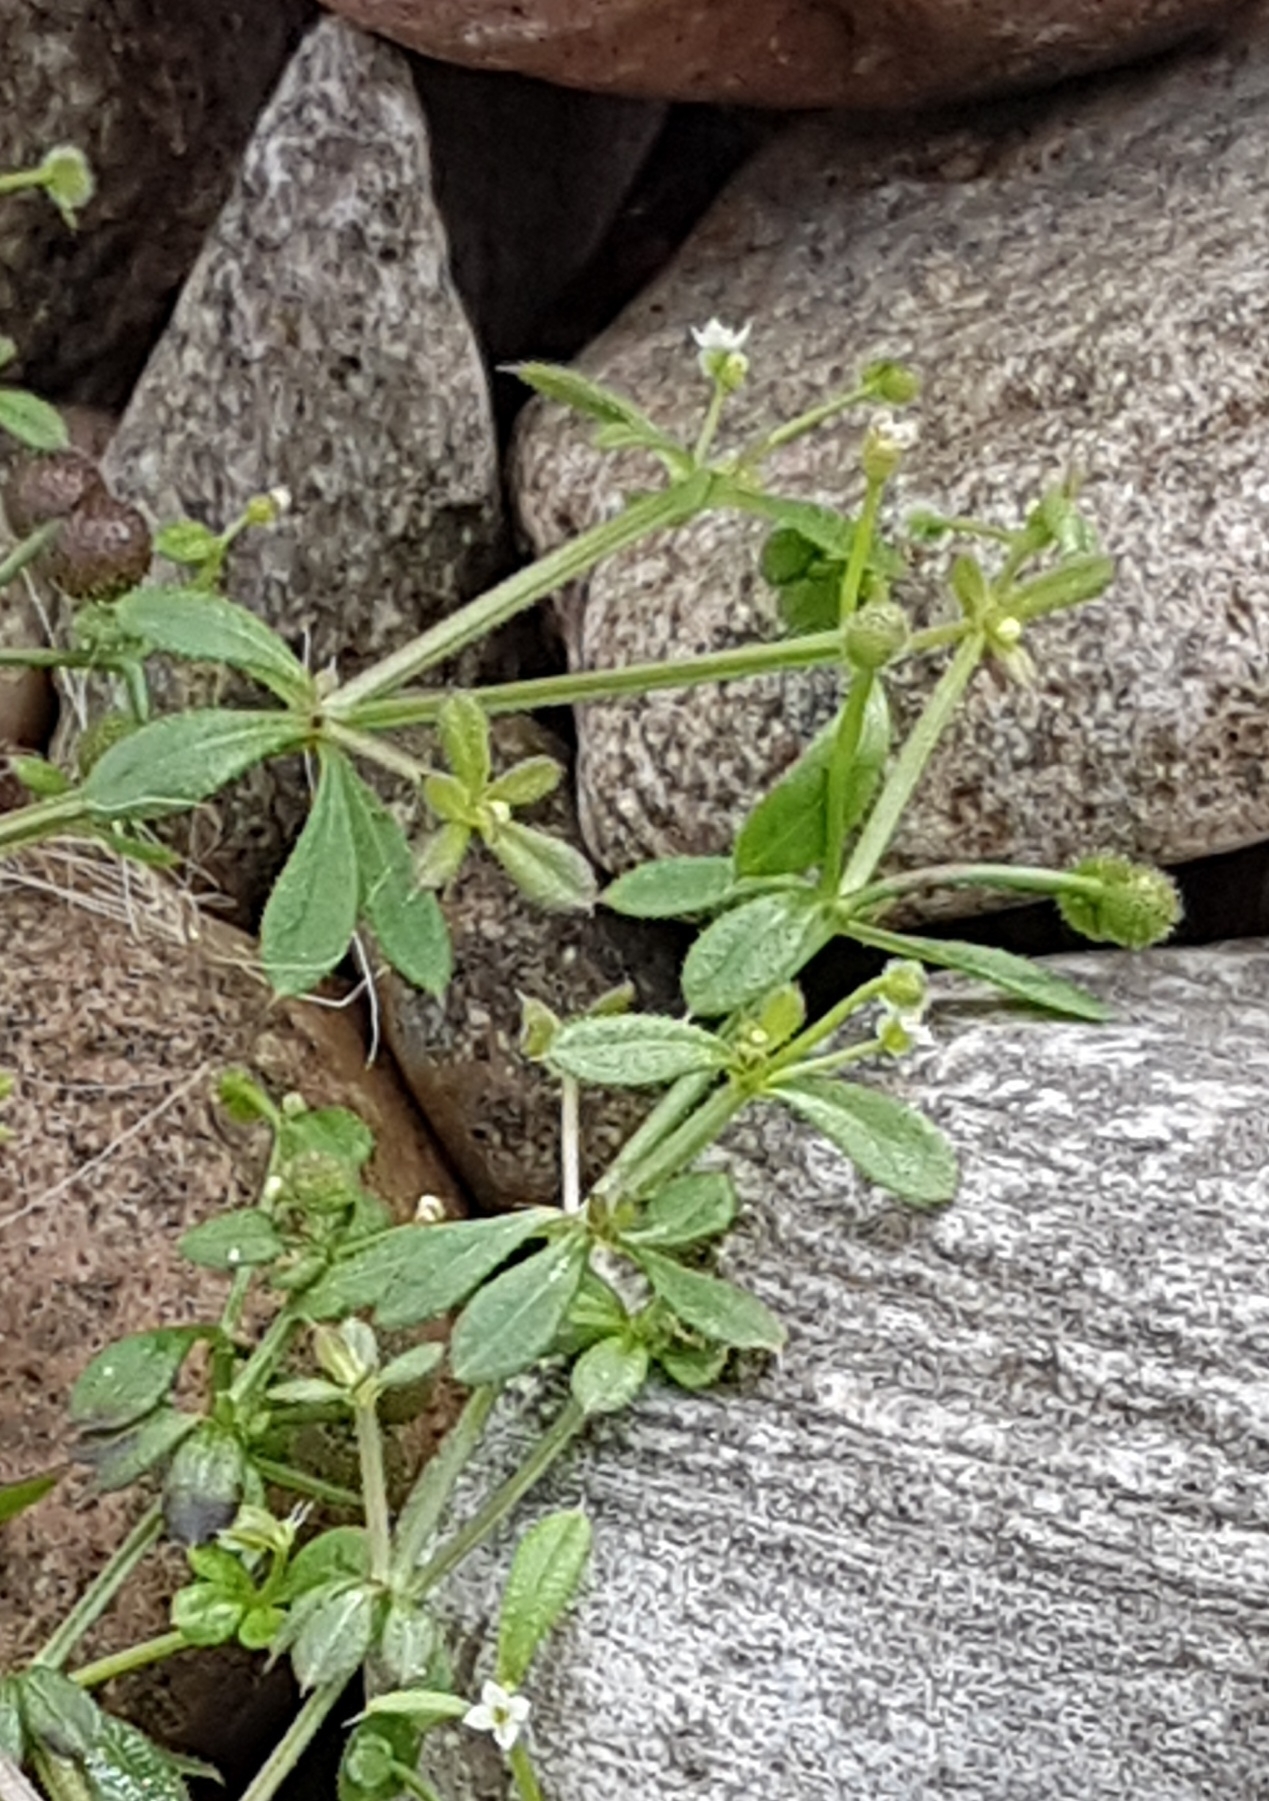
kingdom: Plantae
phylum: Tracheophyta
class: Magnoliopsida
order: Gentianales
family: Rubiaceae
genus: Galium
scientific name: Galium aparine
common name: Cleavers
